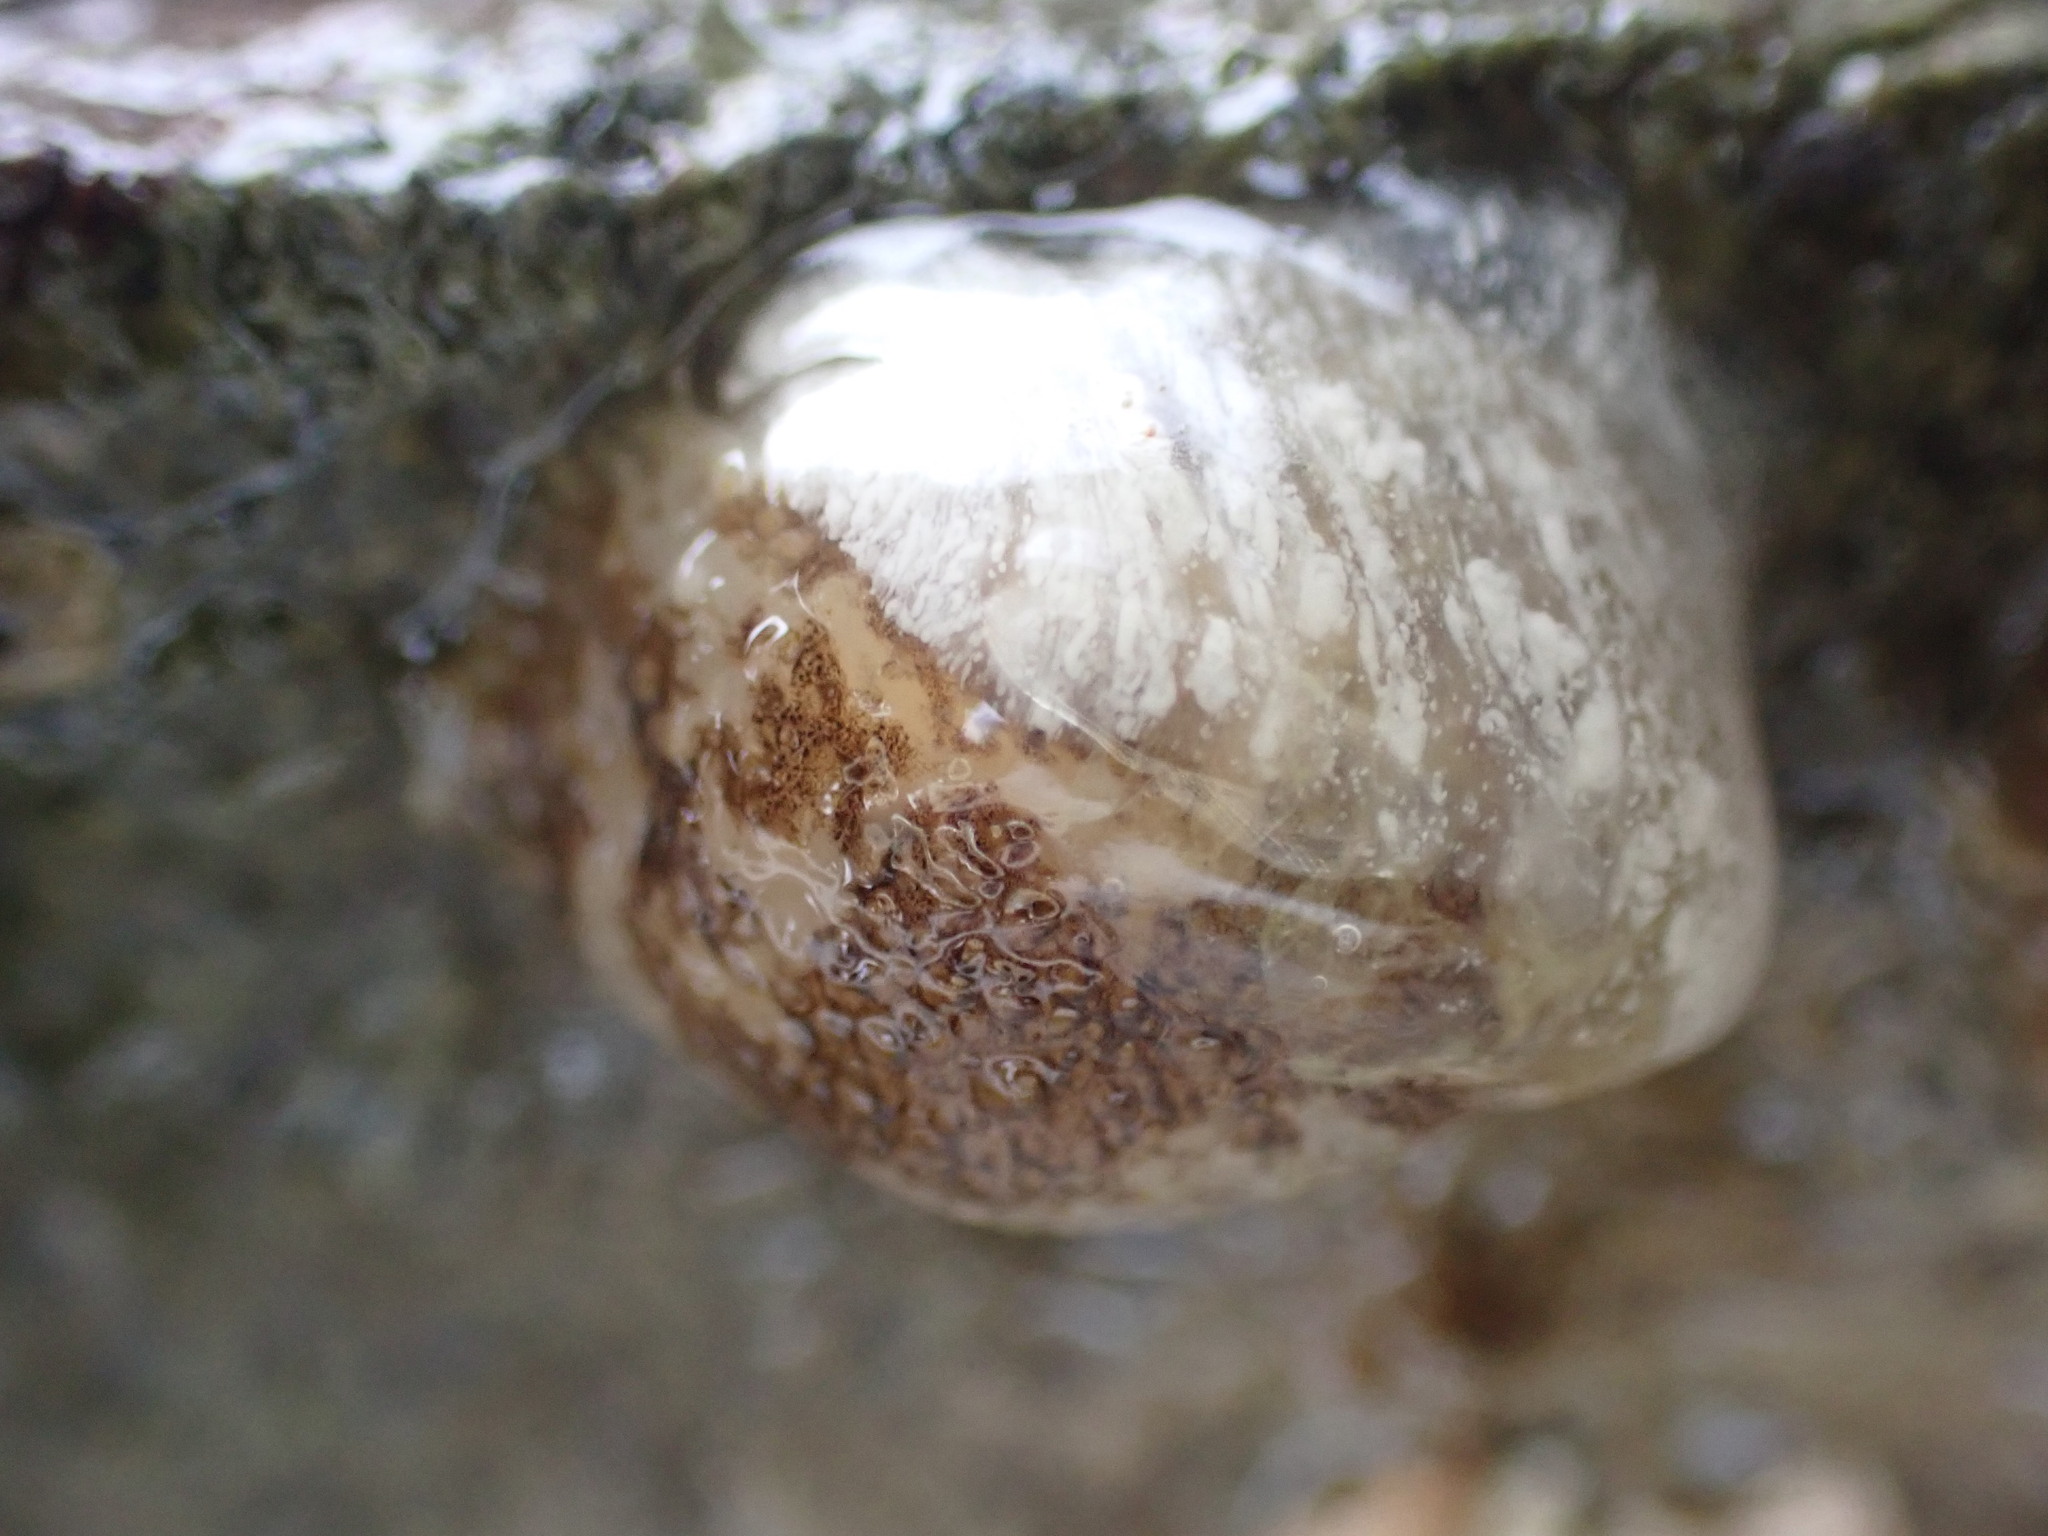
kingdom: Animalia
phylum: Mollusca
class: Gastropoda
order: Nudibranchia
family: Onchidorididae
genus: Onchidoris
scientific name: Onchidoris bilamellata
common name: Barnacle-eating onchidoris
